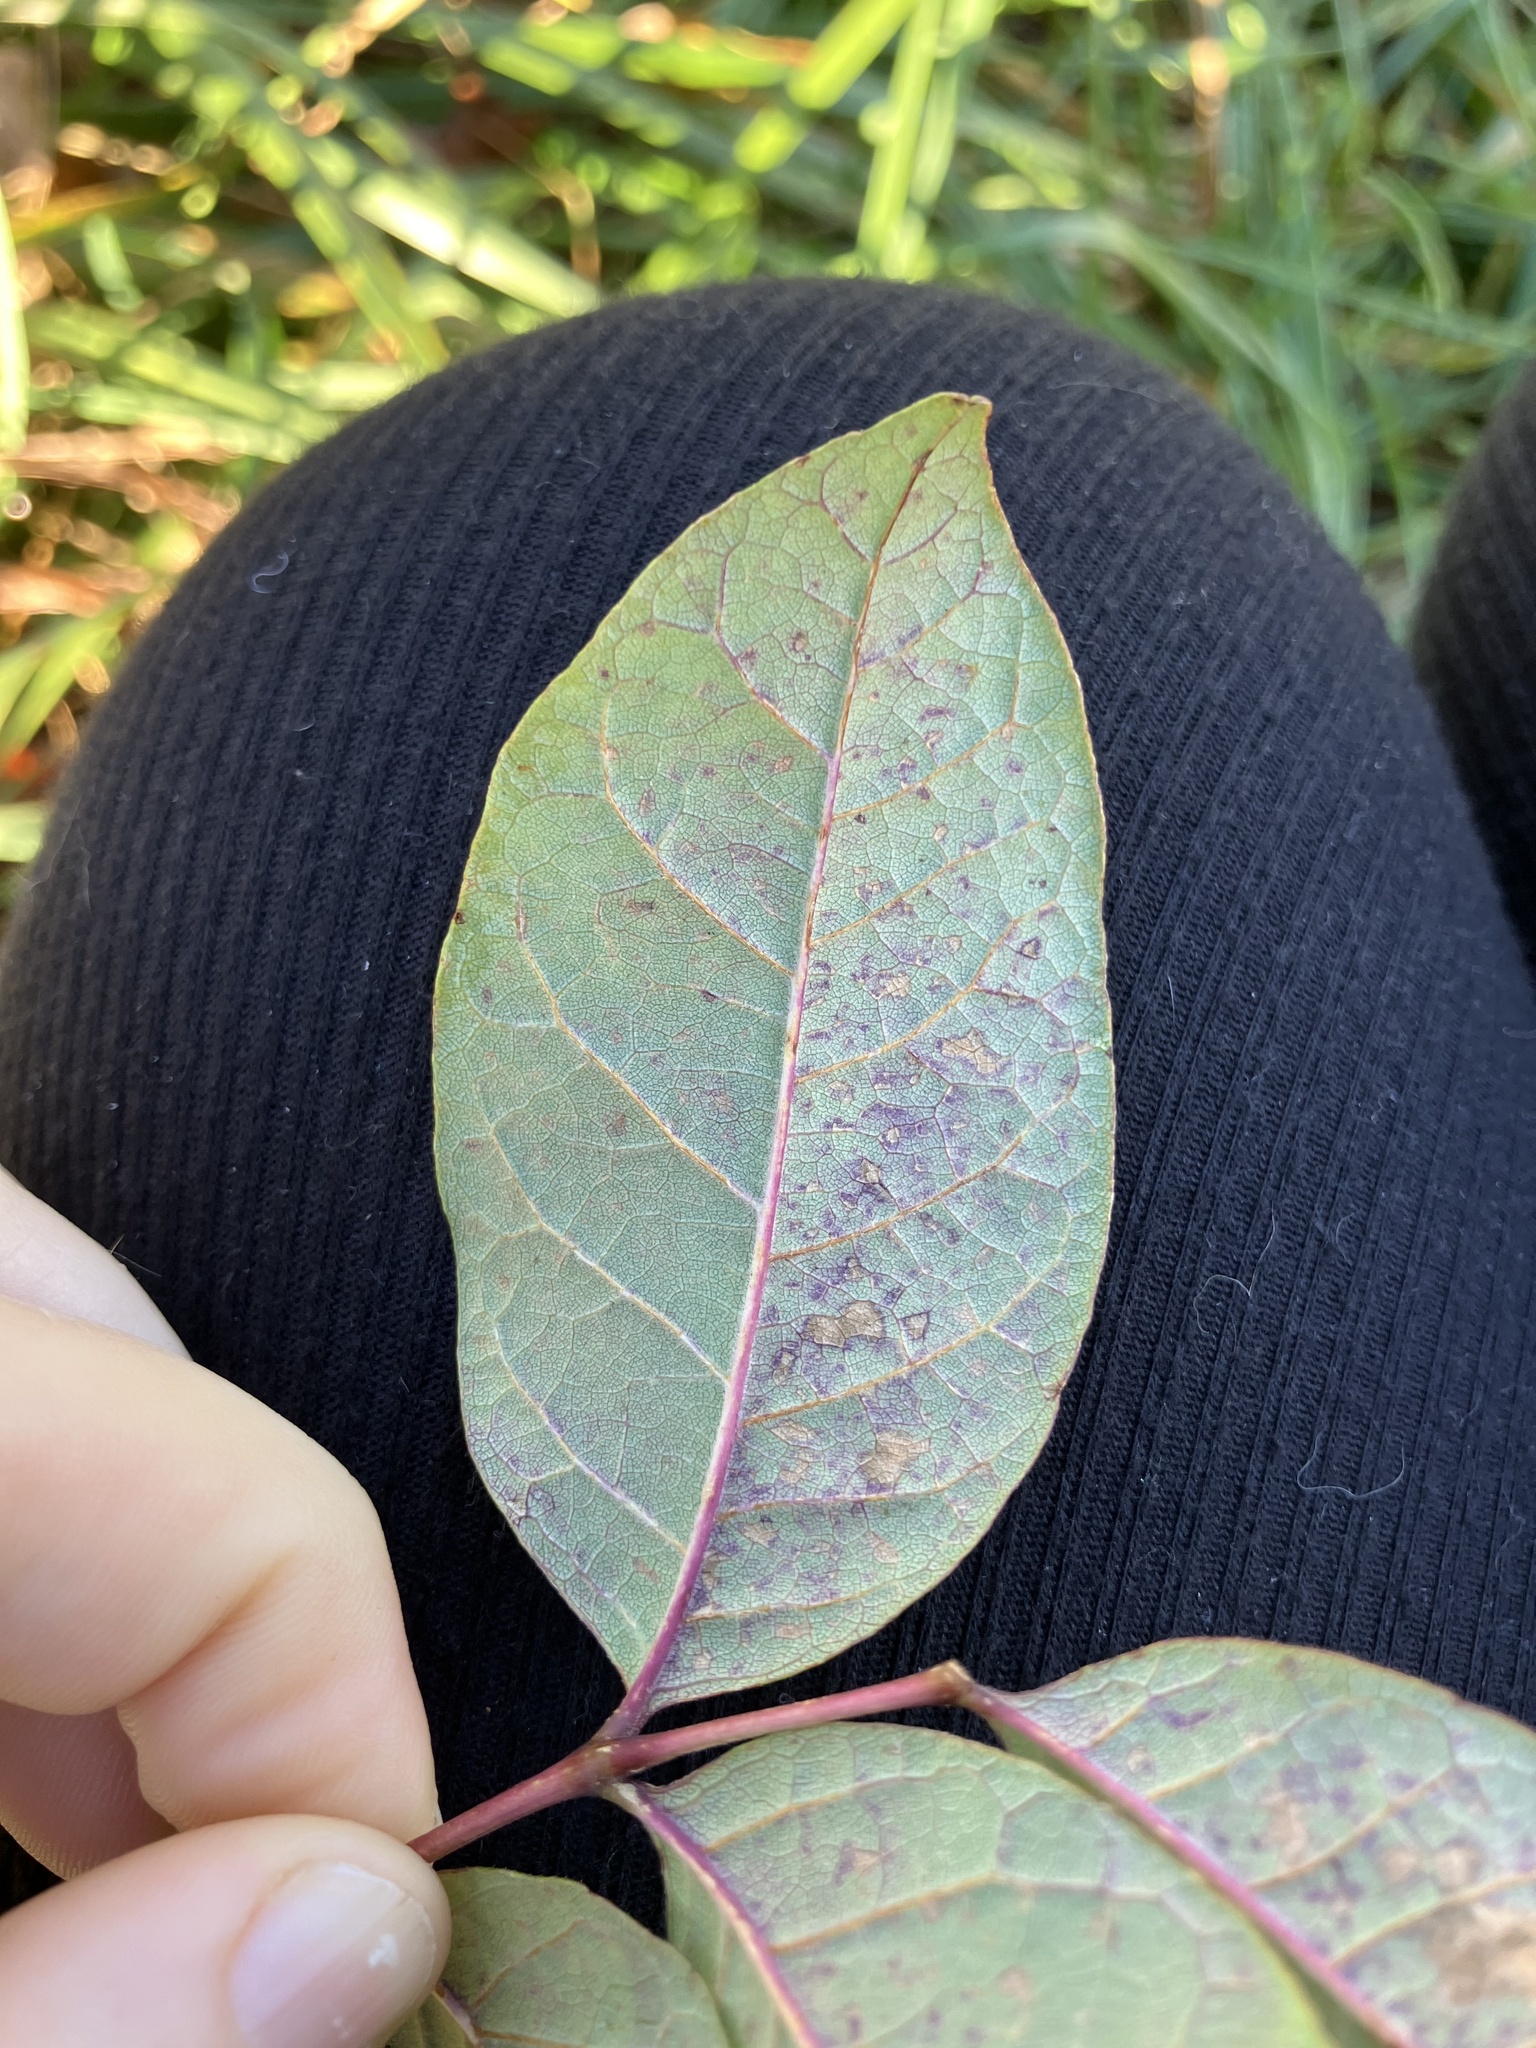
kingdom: Plantae
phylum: Tracheophyta
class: Magnoliopsida
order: Lamiales
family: Oleaceae
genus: Fraxinus
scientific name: Fraxinus americana
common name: White ash
